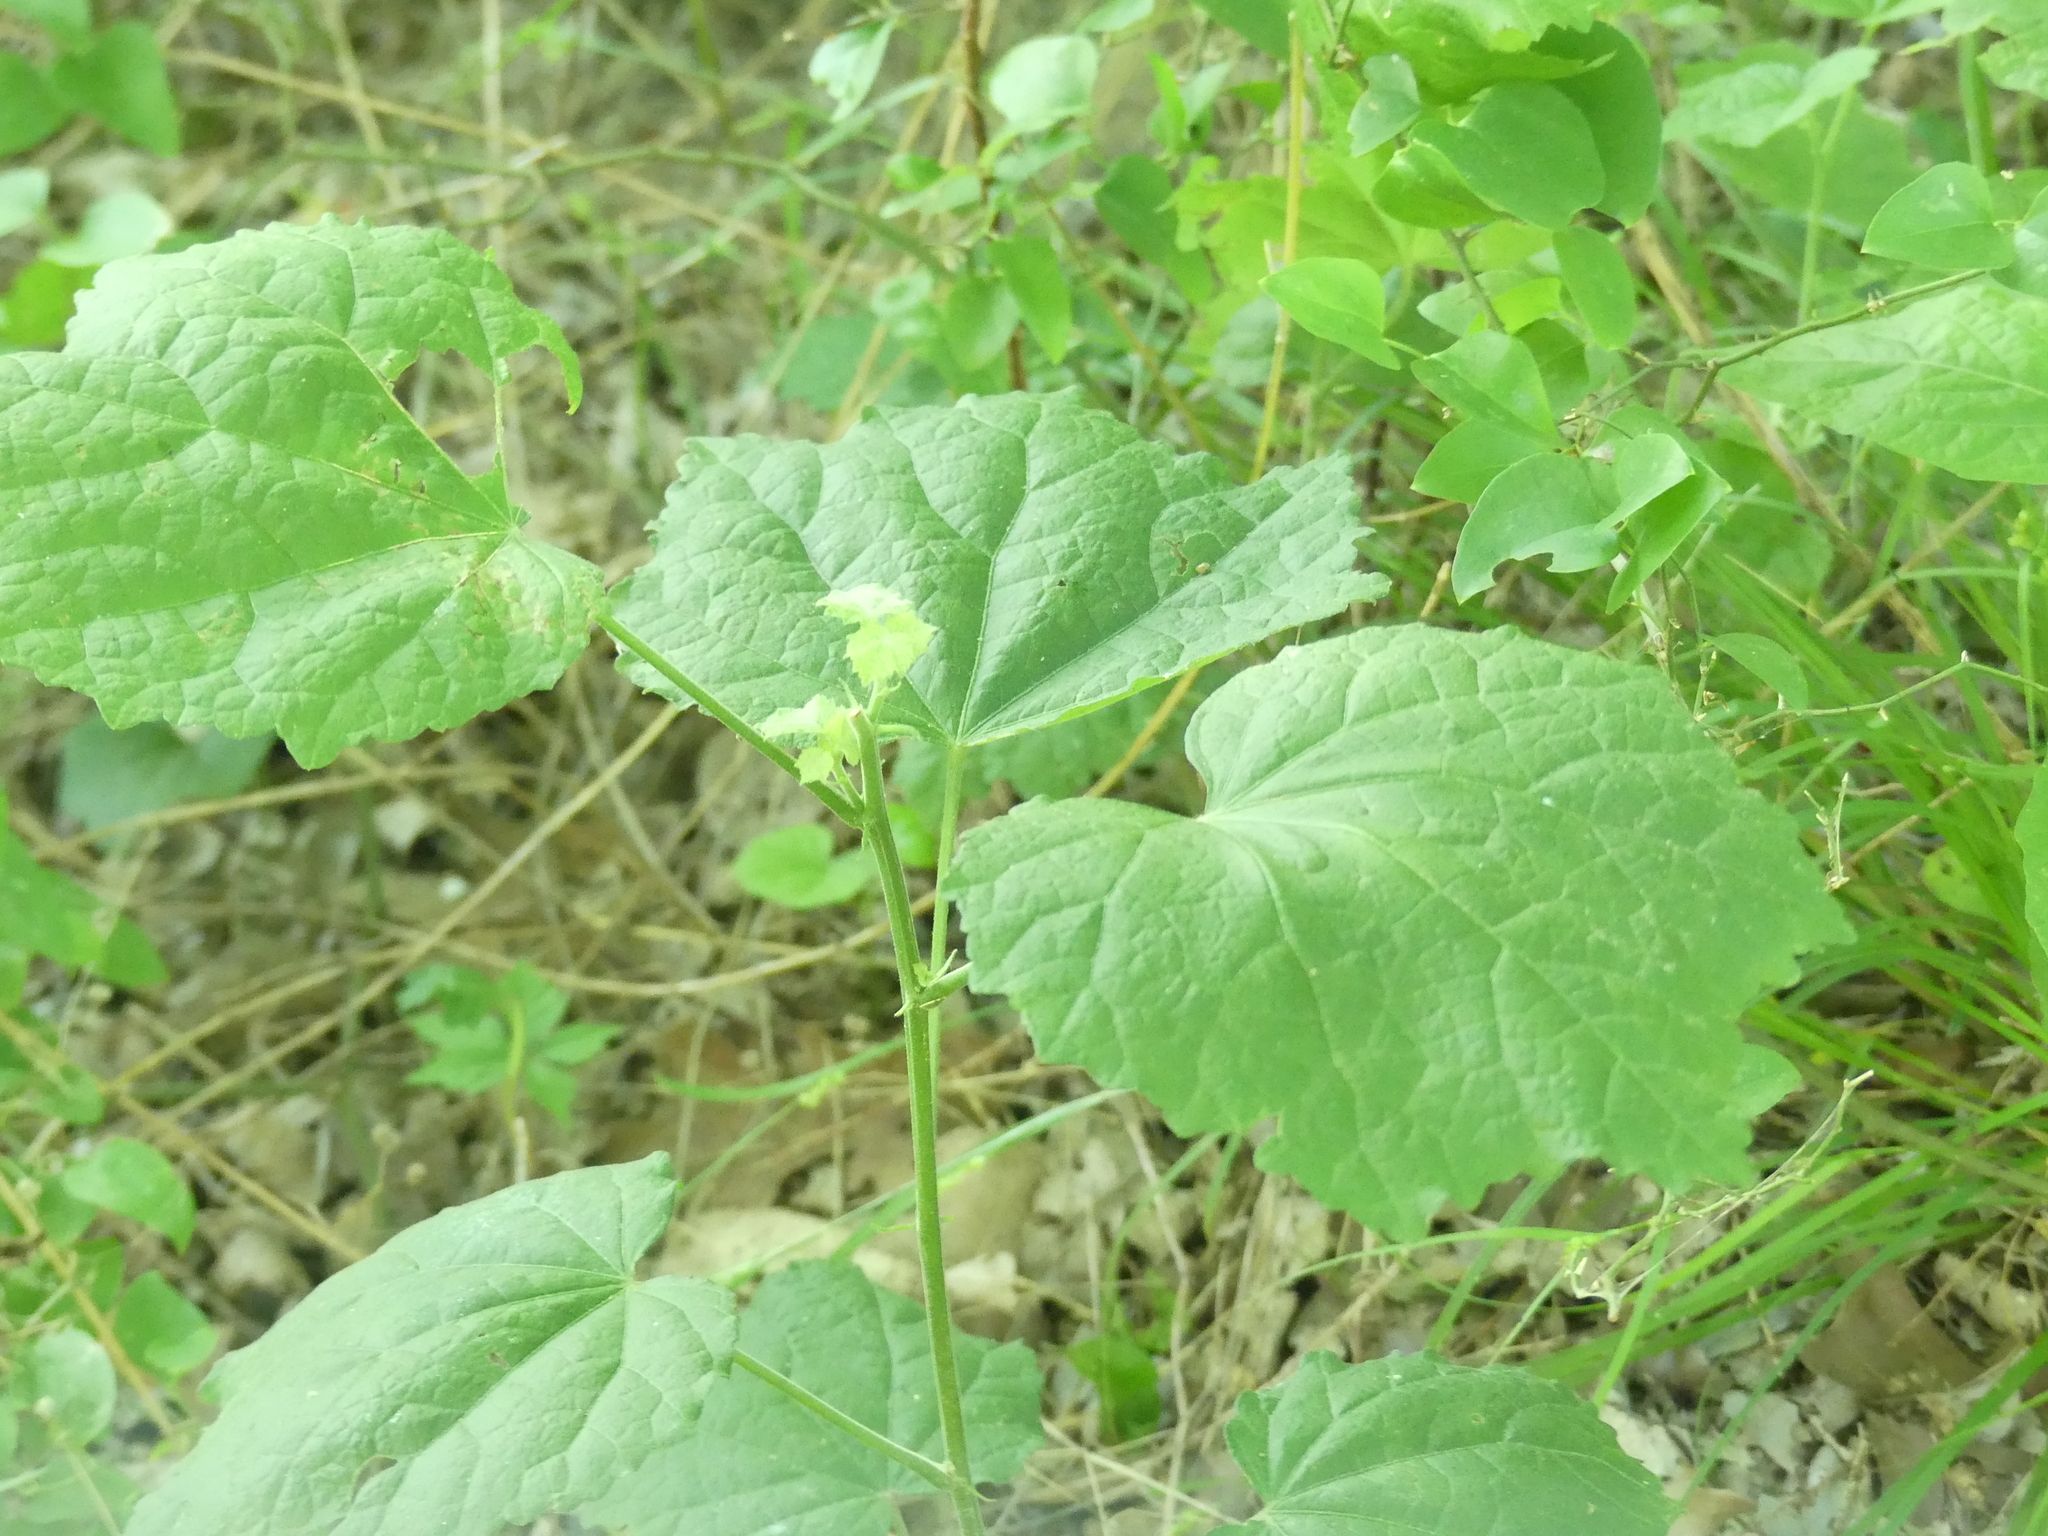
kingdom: Plantae
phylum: Tracheophyta
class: Magnoliopsida
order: Malvales
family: Malvaceae
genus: Malvaviscus
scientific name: Malvaviscus arboreus
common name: Wax mallow
